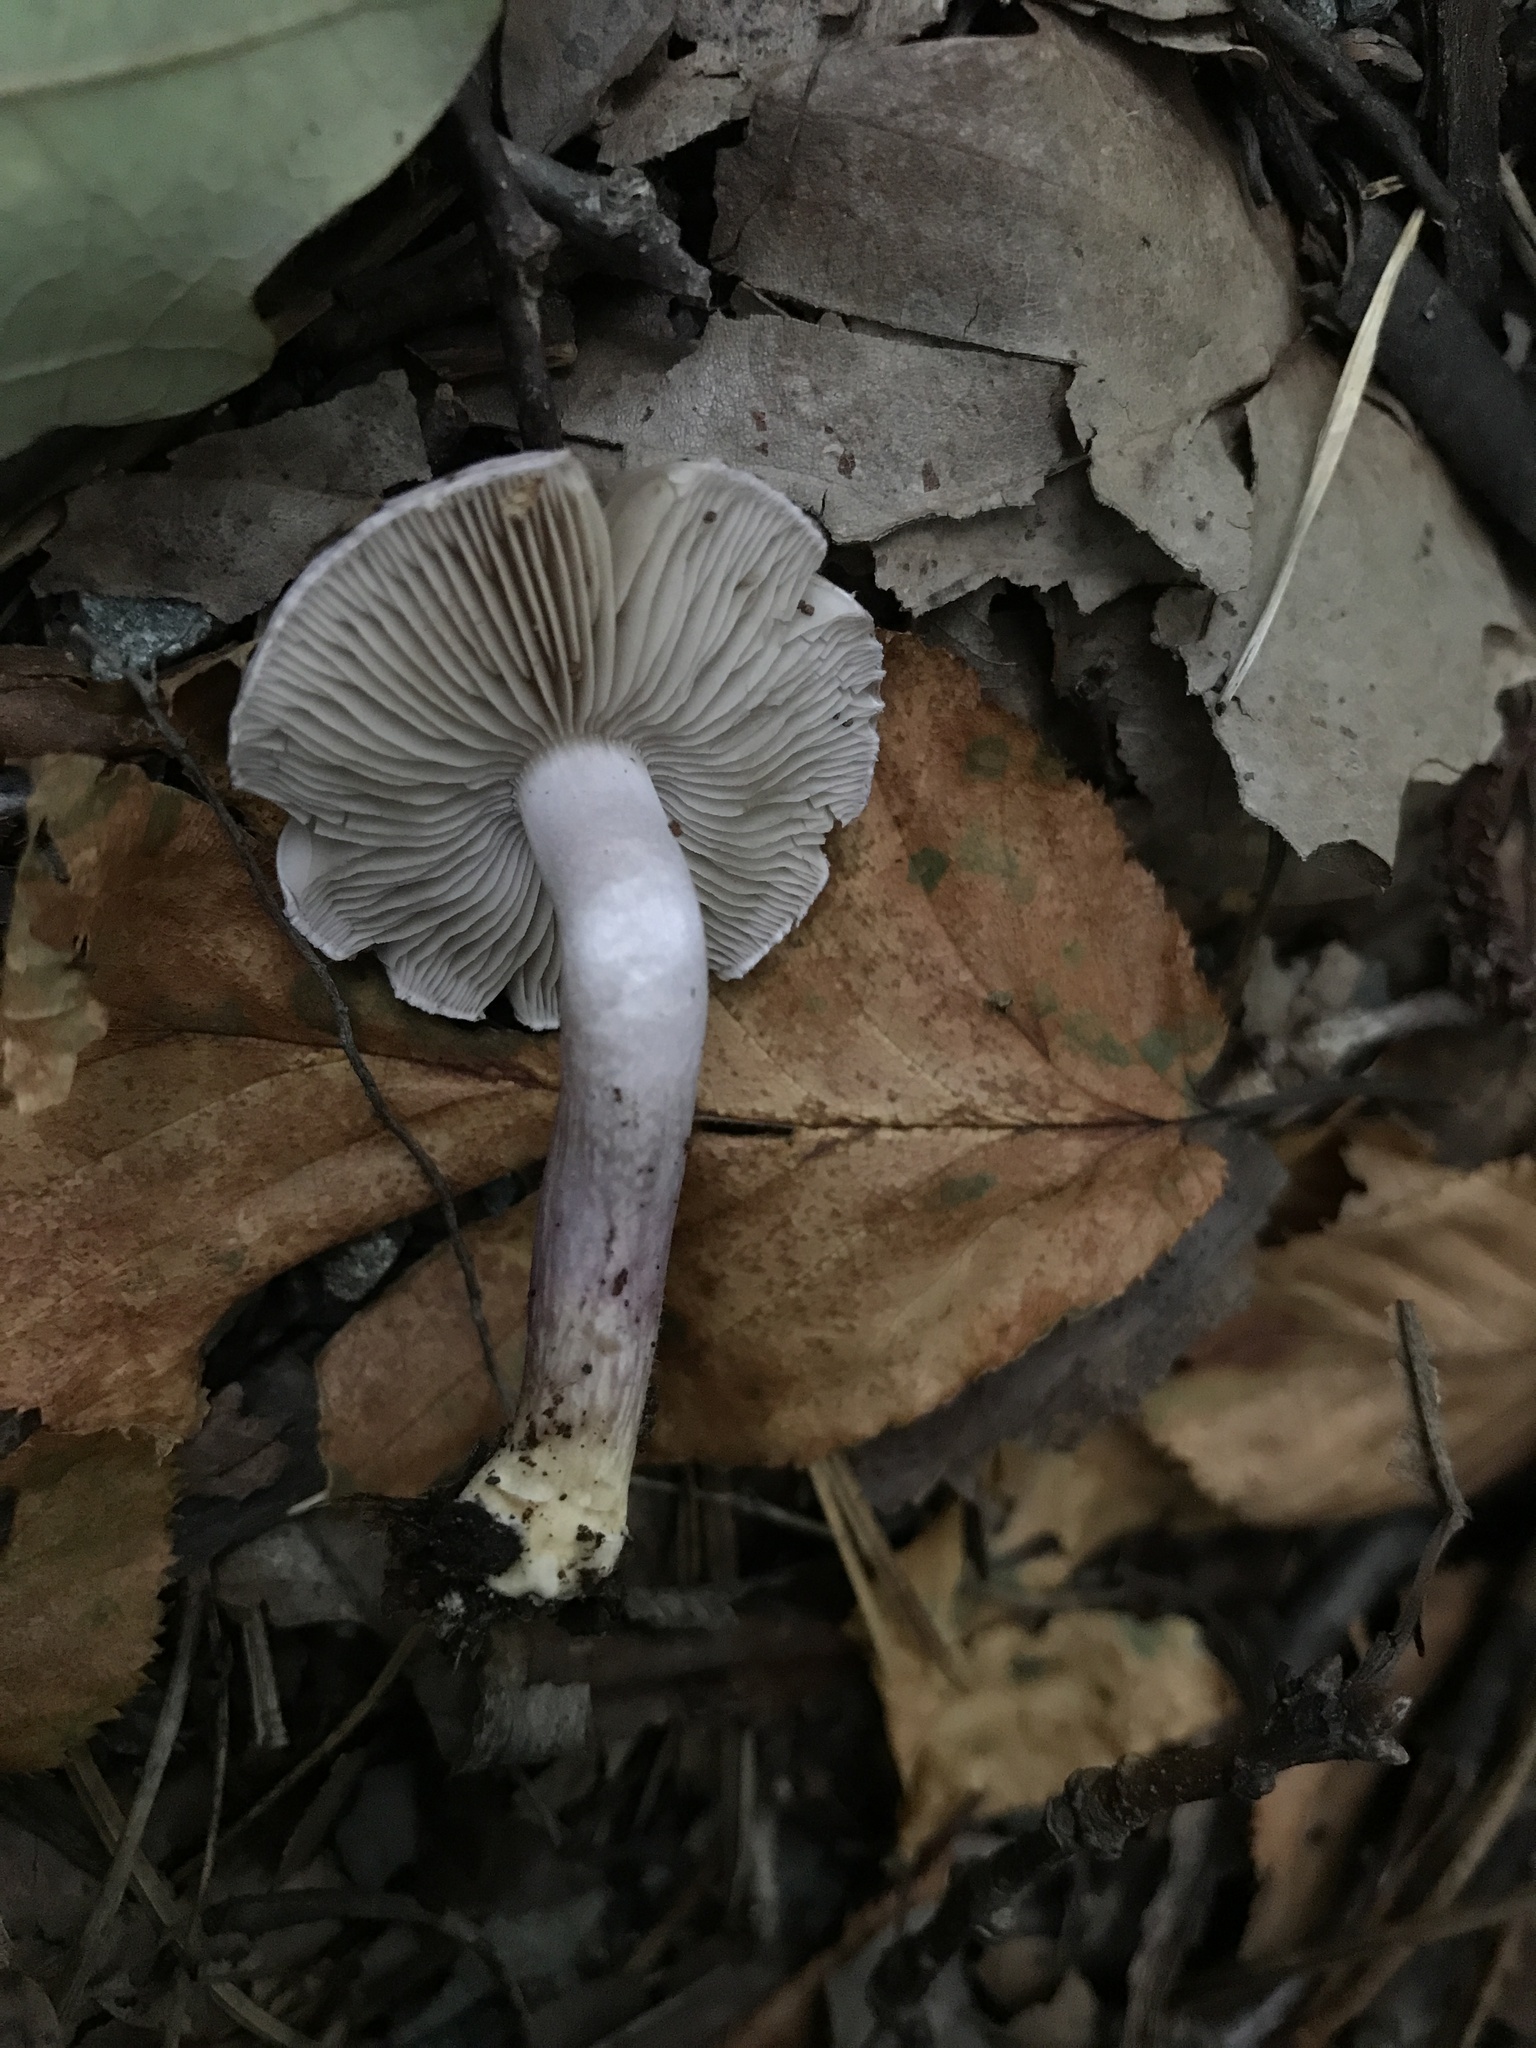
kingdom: Fungi
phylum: Basidiomycota
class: Agaricomycetes
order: Agaricales
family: Inocybaceae
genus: Inocybe
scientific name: Inocybe geophylla
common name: White fibrecap
